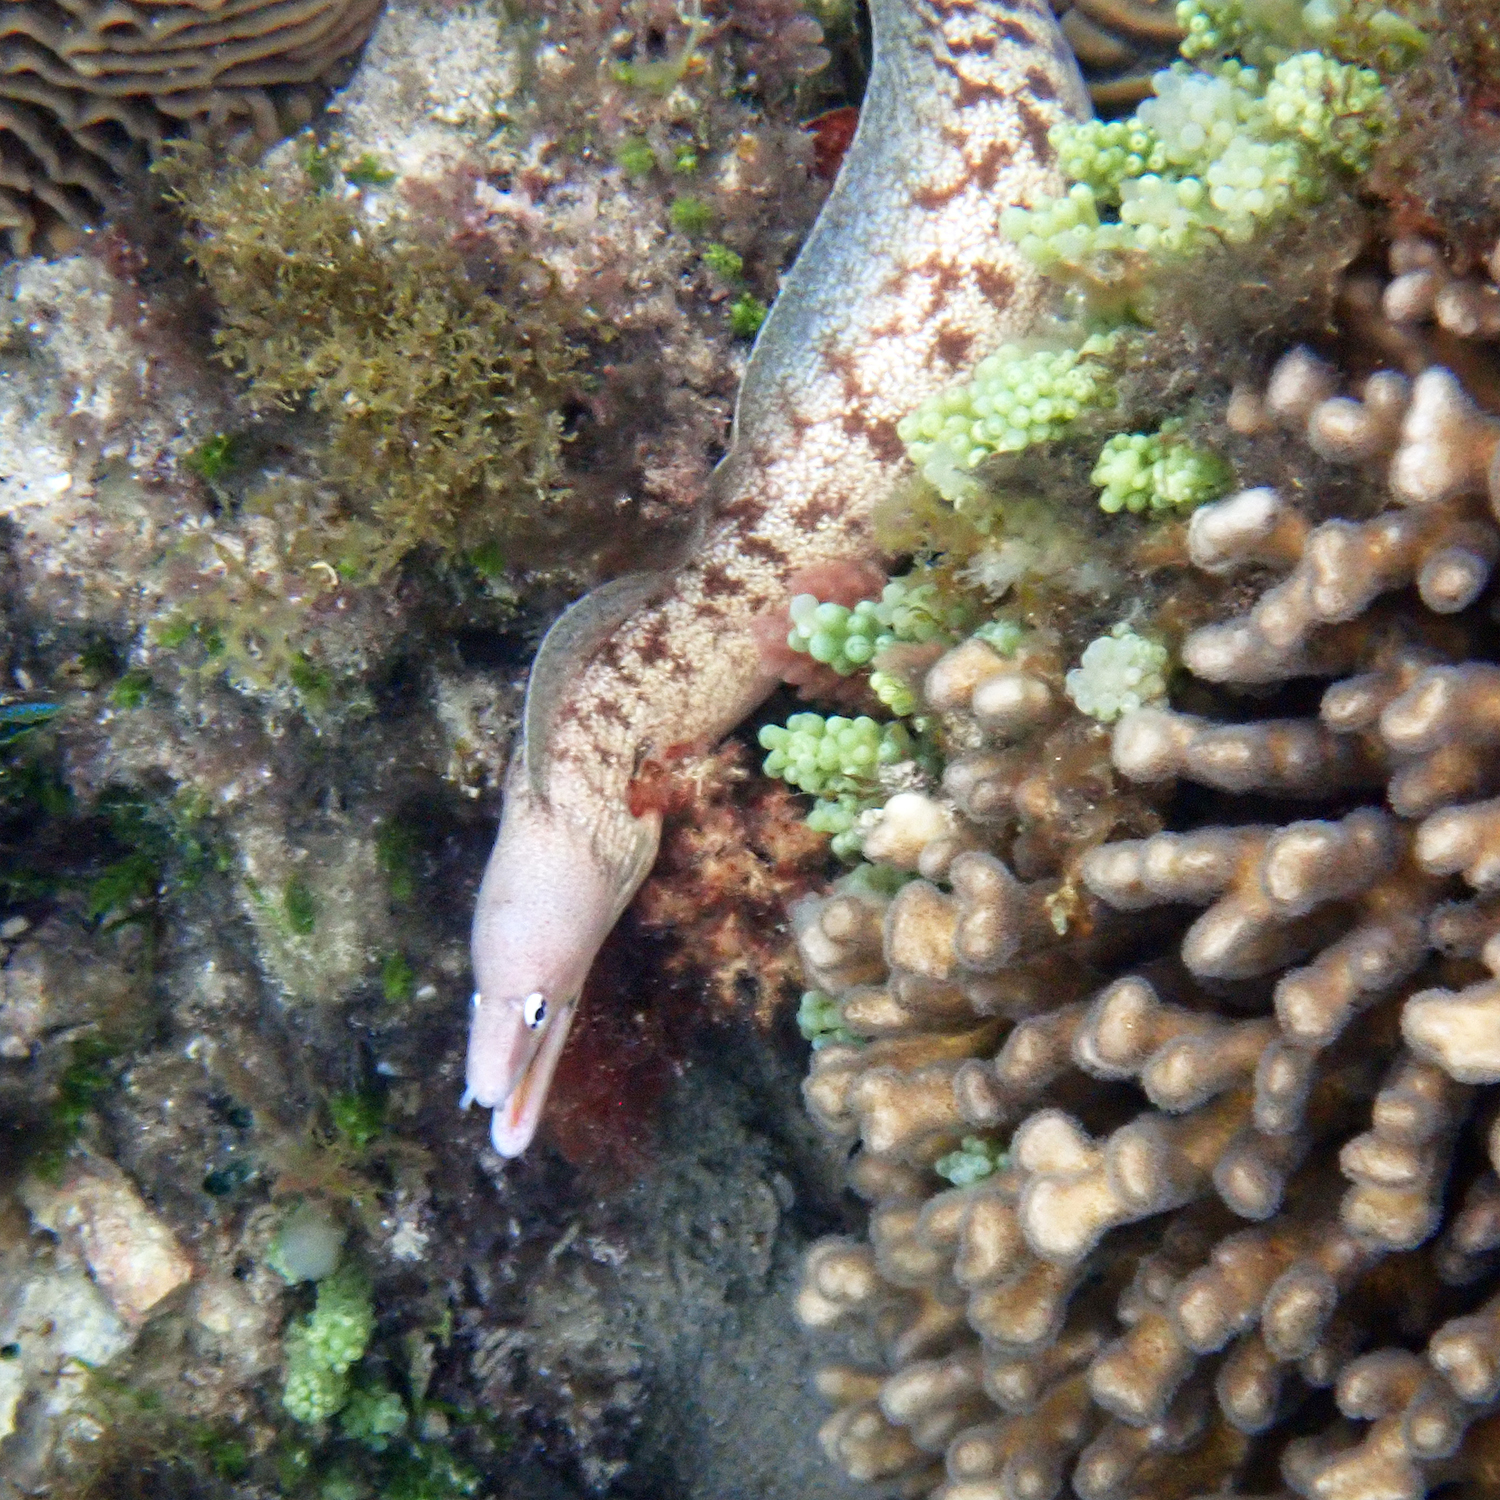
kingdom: Animalia
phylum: Chordata
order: Anguilliformes
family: Muraenidae
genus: Gymnothorax
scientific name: Gymnothorax nubilus
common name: Grey moray
